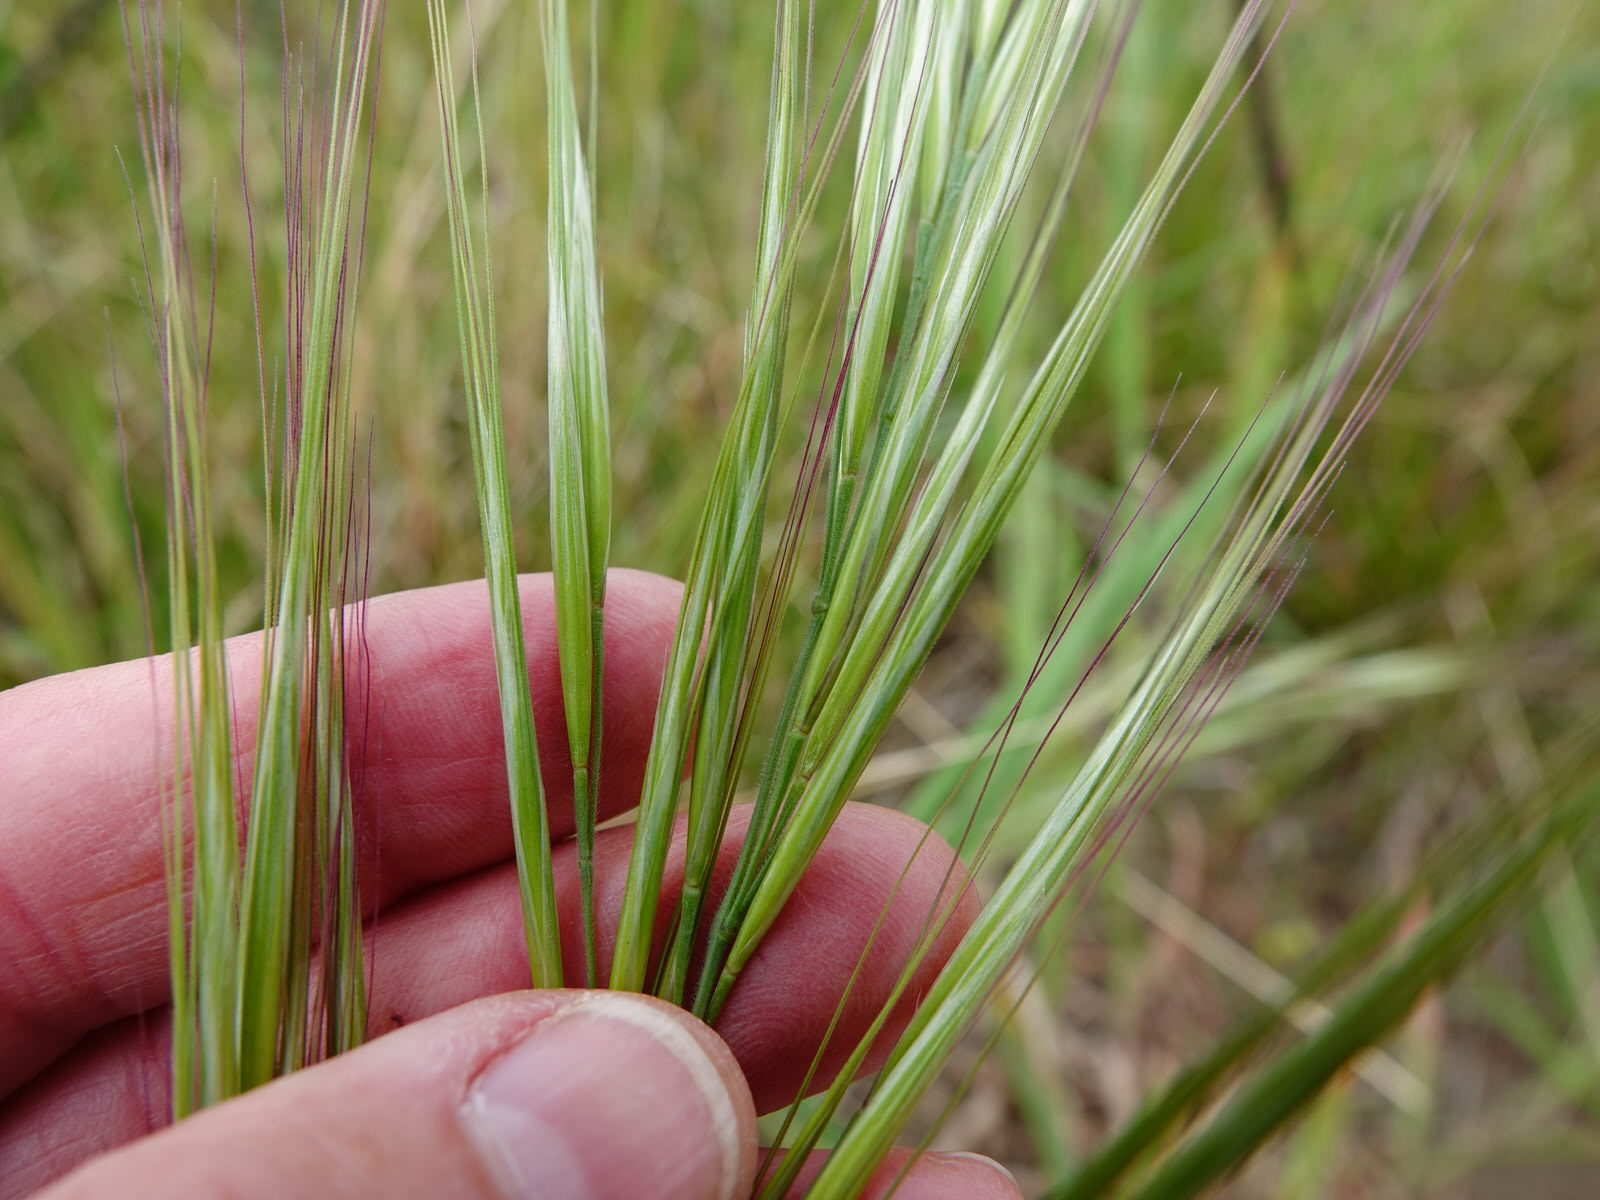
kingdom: Plantae
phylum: Tracheophyta
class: Liliopsida
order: Poales
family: Poaceae
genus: Bromus
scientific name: Bromus diandrus
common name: Ripgut brome
